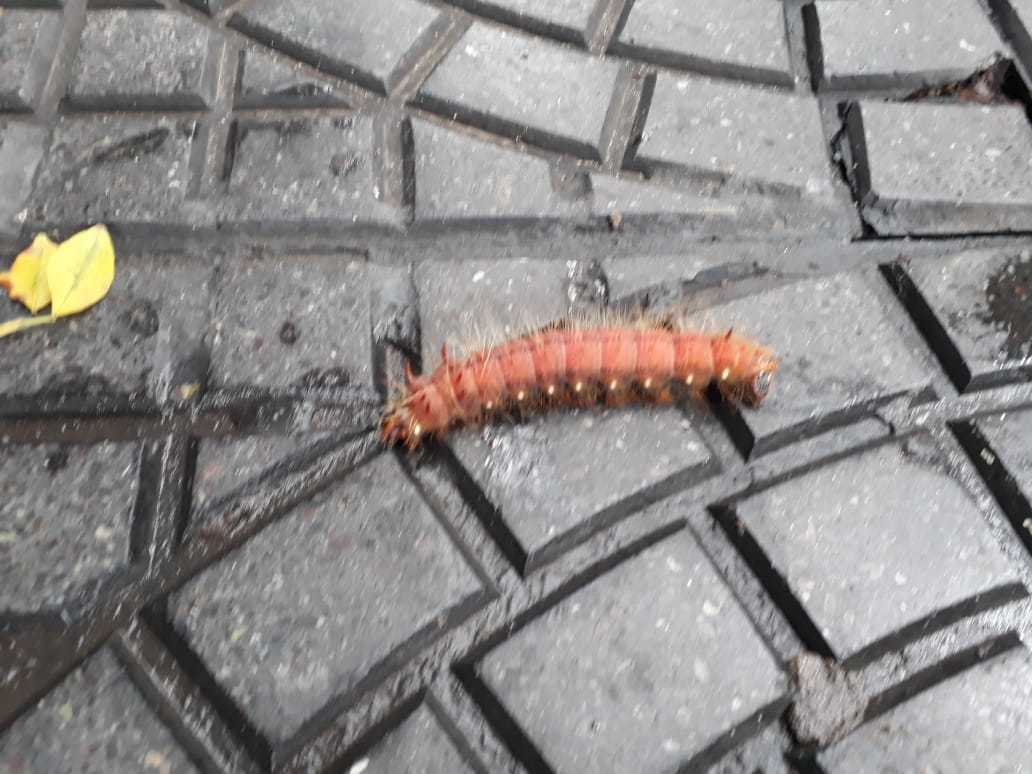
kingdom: Animalia
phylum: Arthropoda
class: Insecta
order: Lepidoptera
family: Saturniidae
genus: Eacles
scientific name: Eacles imperialis
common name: Imperial moth
